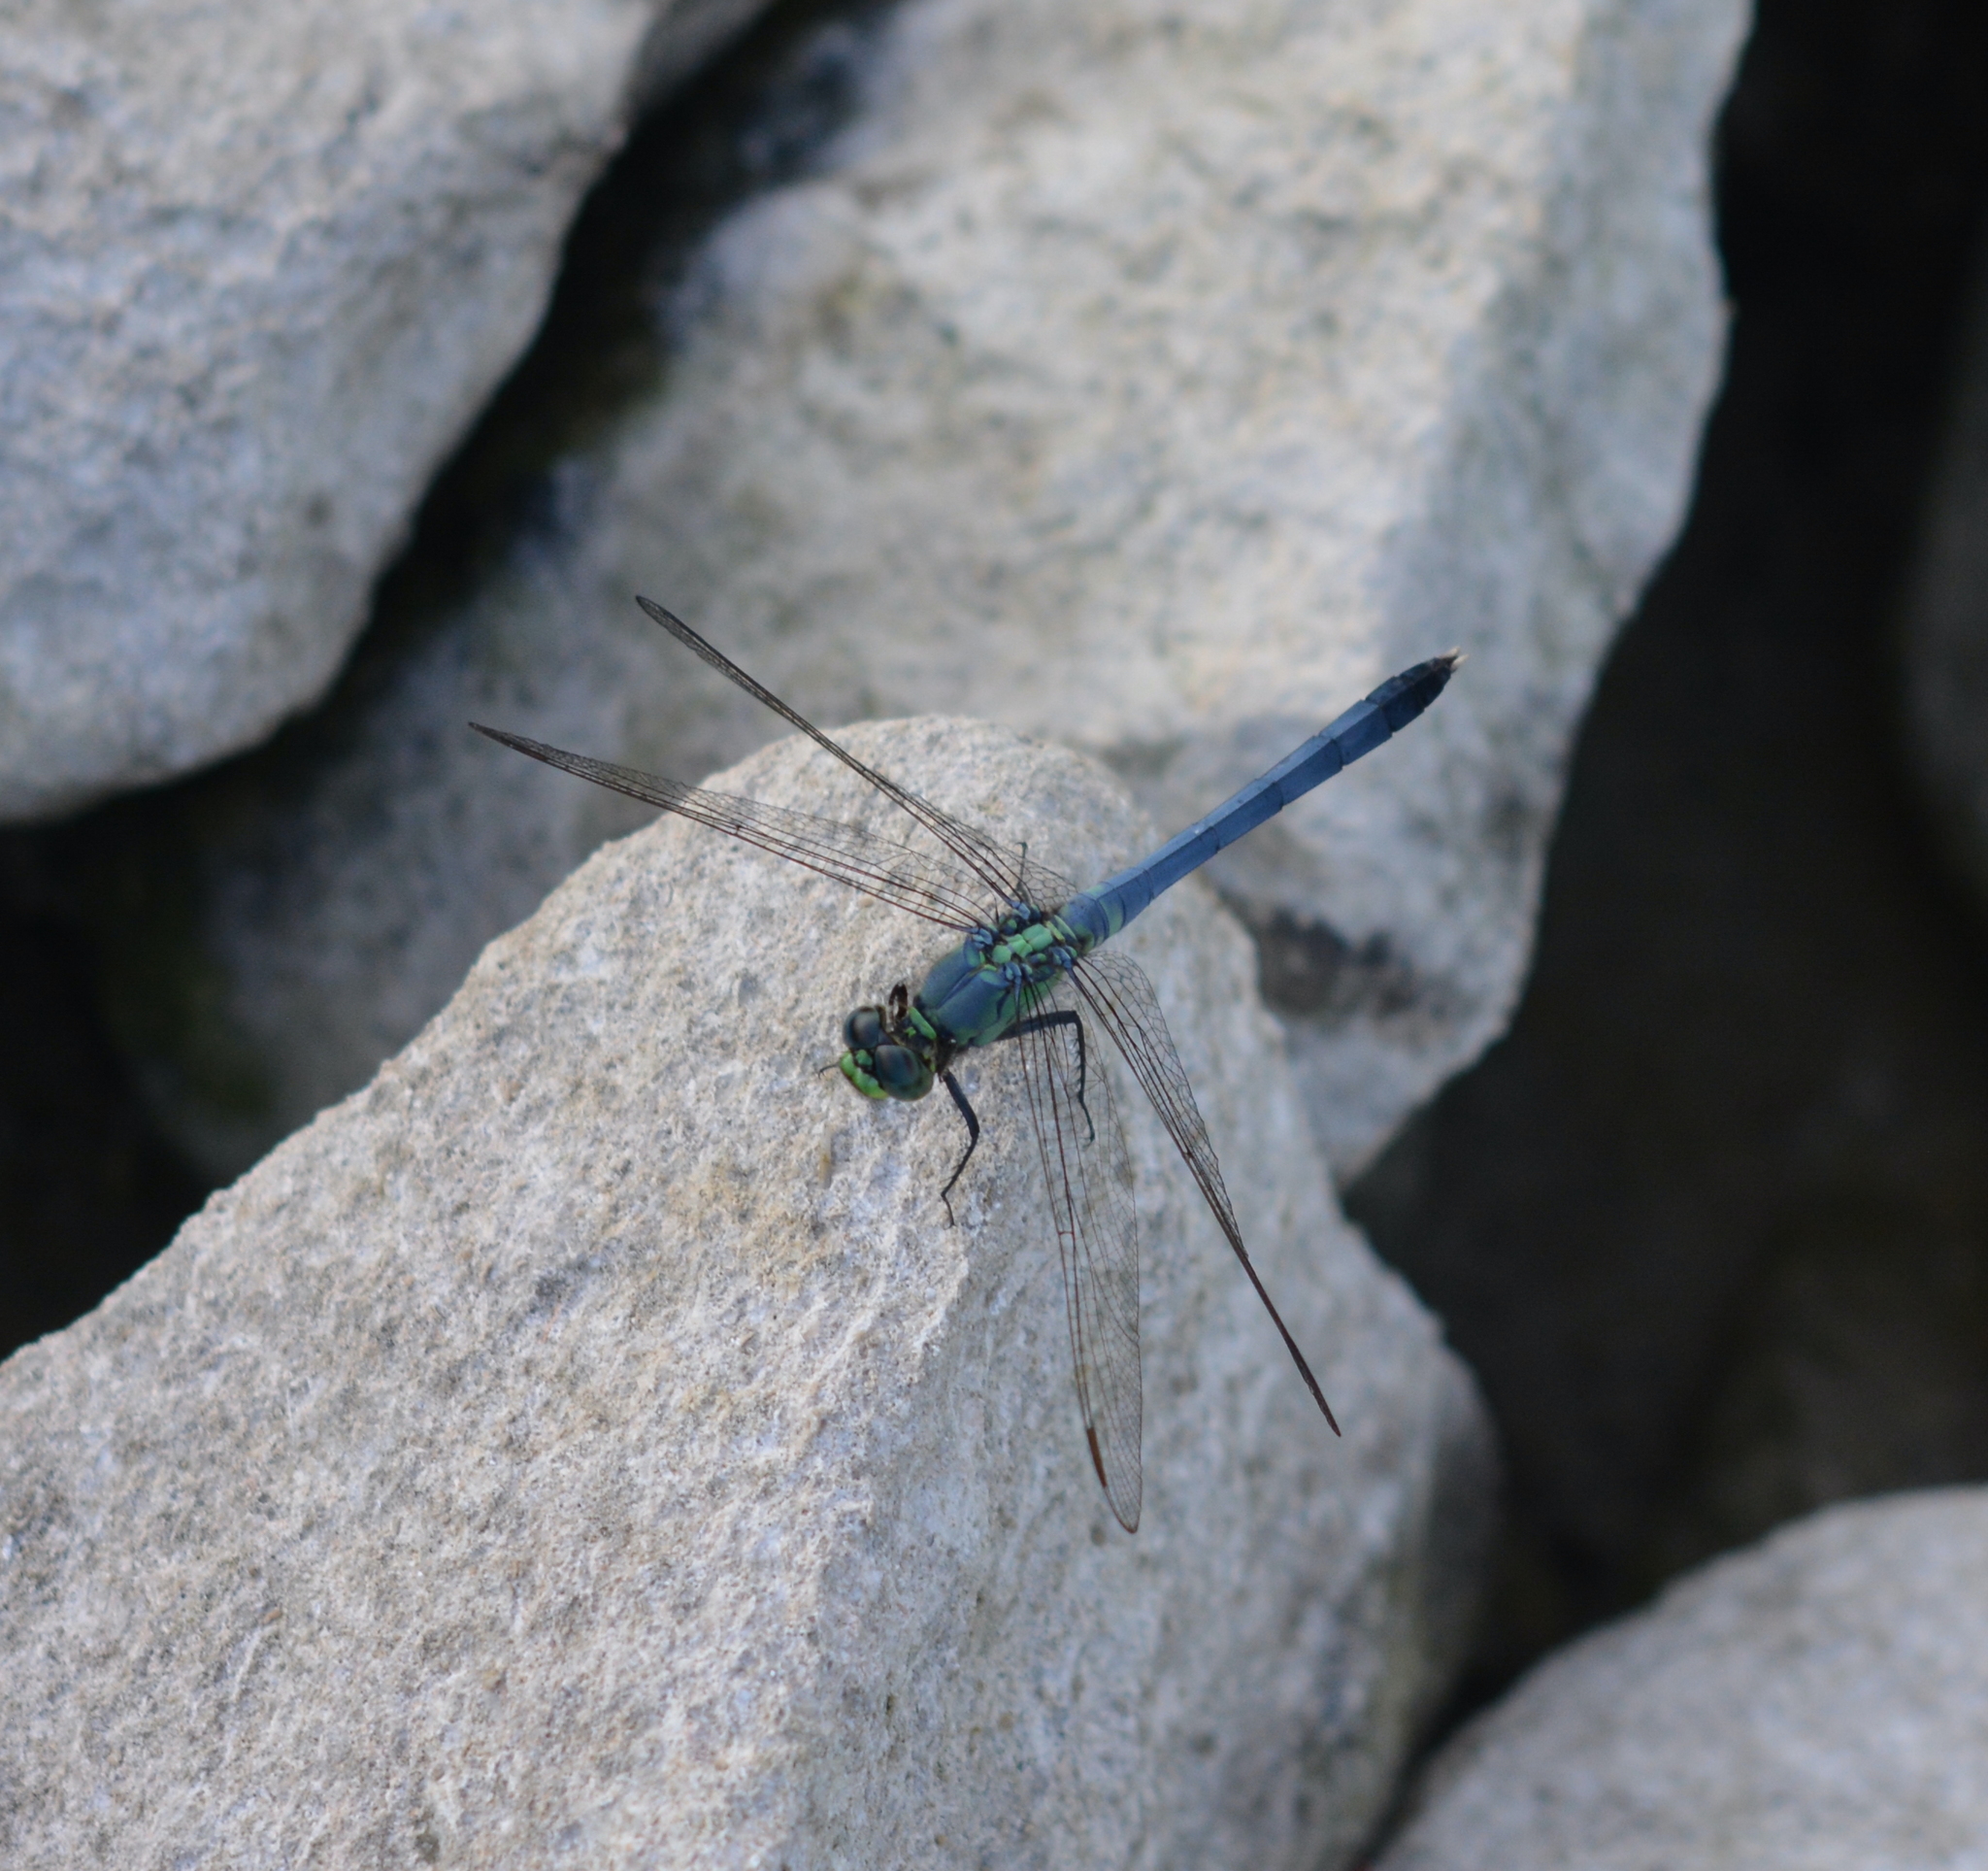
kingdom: Animalia
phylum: Arthropoda
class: Insecta
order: Odonata
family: Libellulidae
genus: Erythemis
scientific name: Erythemis simplicicollis
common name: Eastern pondhawk
